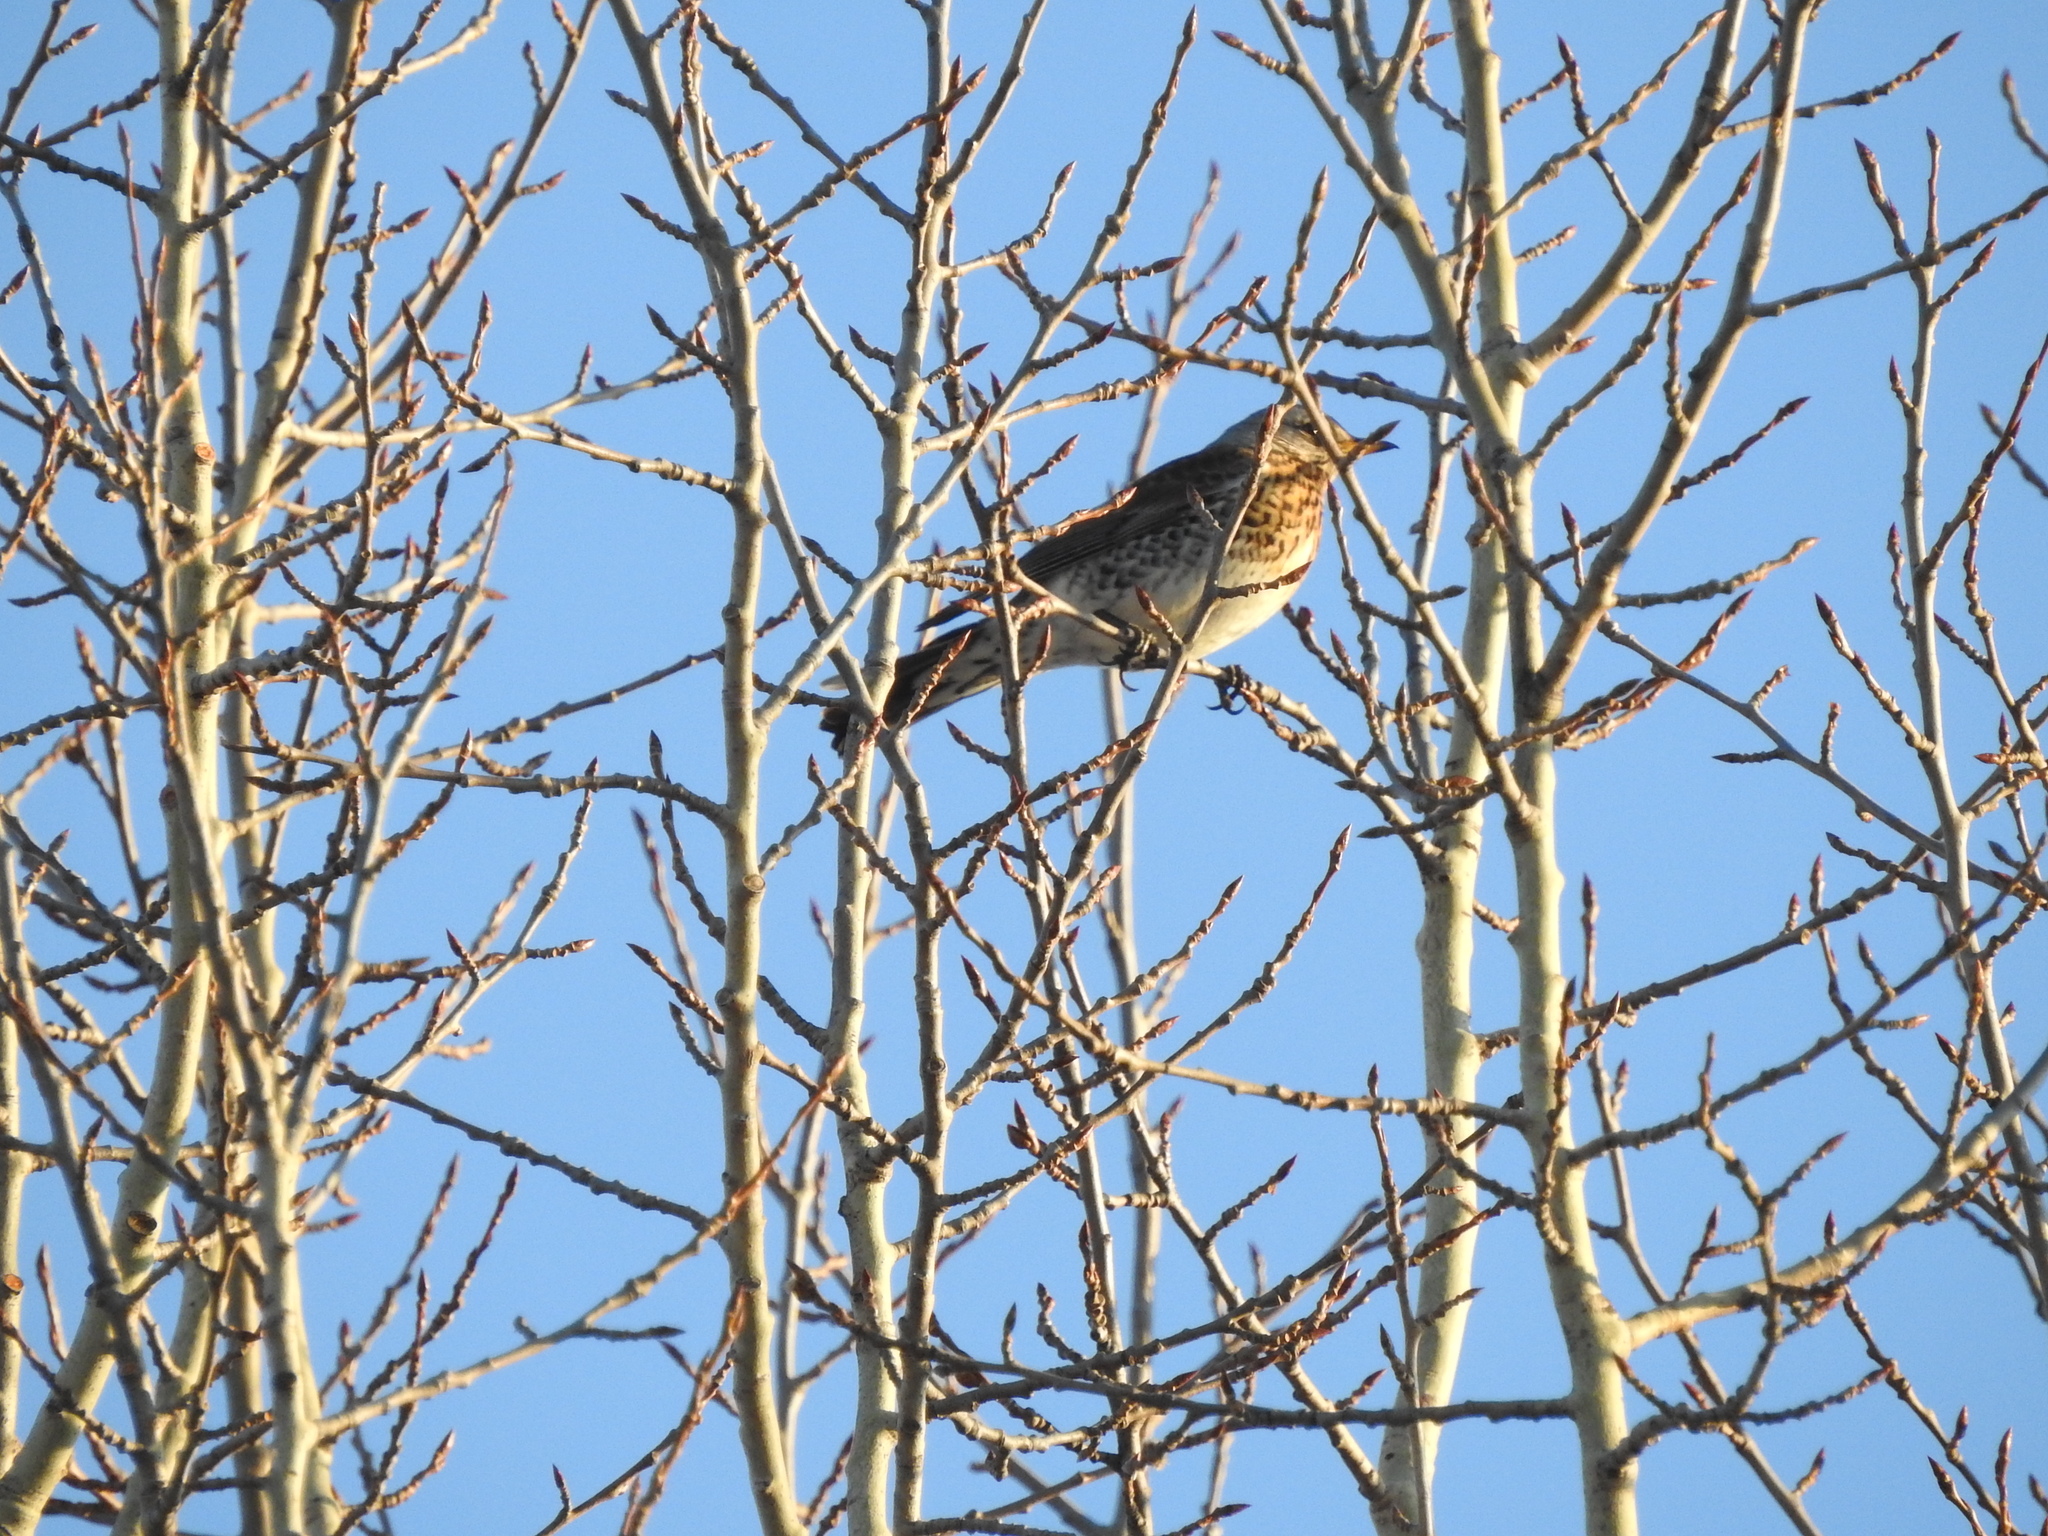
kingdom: Animalia
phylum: Chordata
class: Aves
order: Passeriformes
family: Turdidae
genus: Turdus
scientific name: Turdus pilaris
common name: Fieldfare
